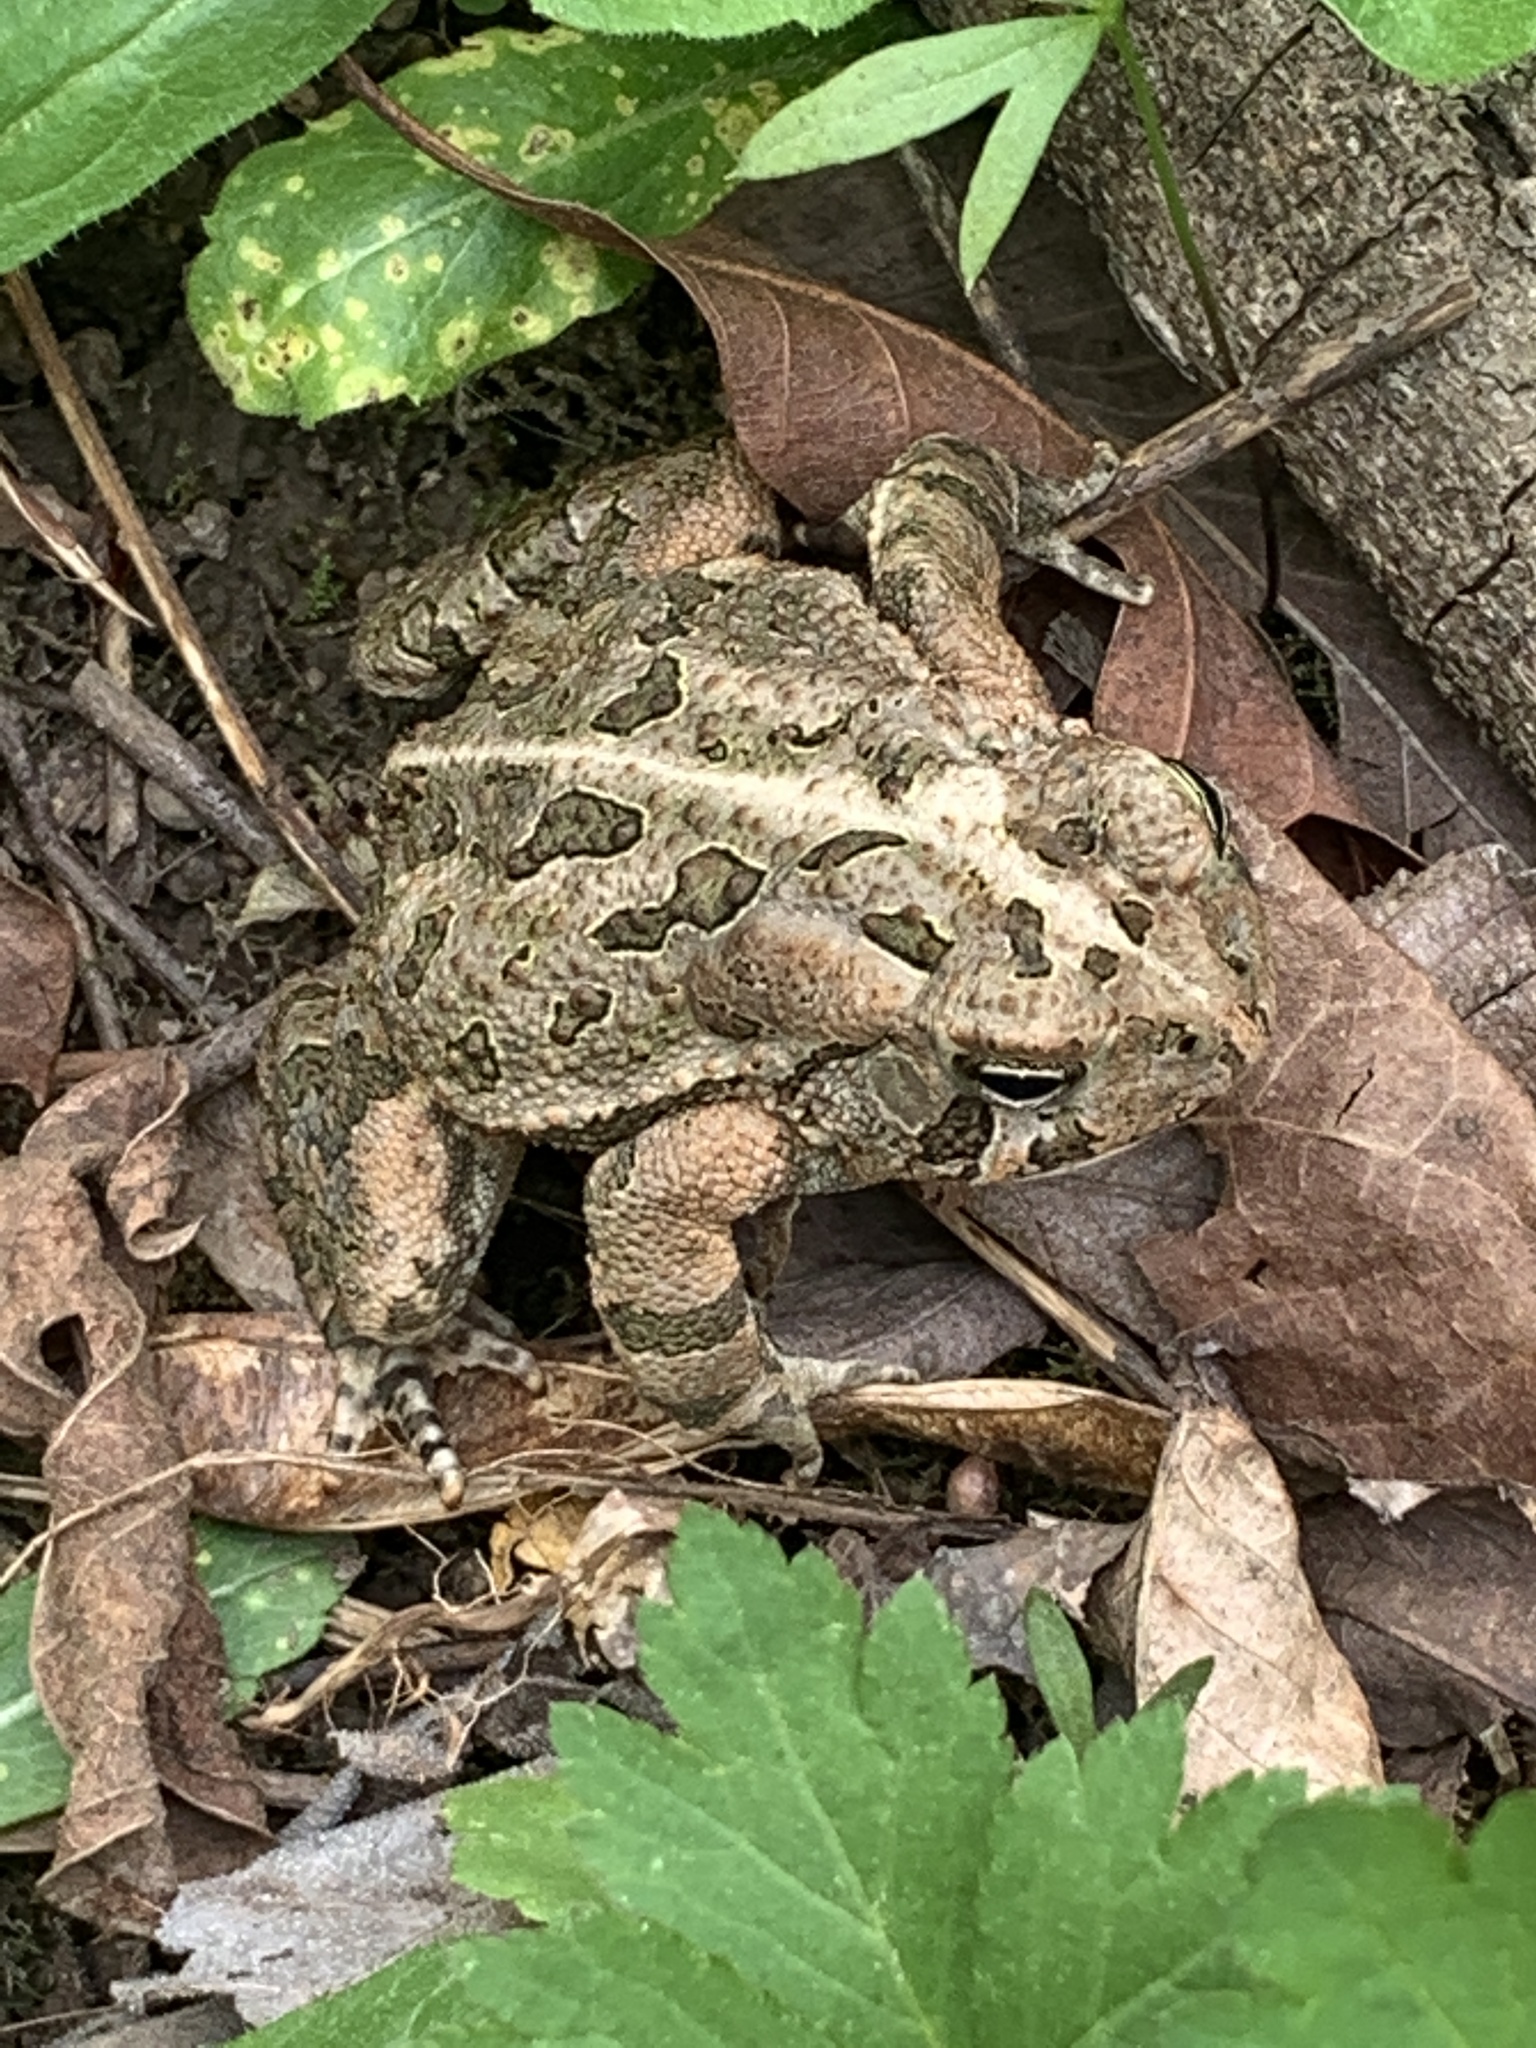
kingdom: Animalia
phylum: Chordata
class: Amphibia
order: Anura
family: Bufonidae
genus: Anaxyrus
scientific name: Anaxyrus fowleri
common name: Fowler's toad
